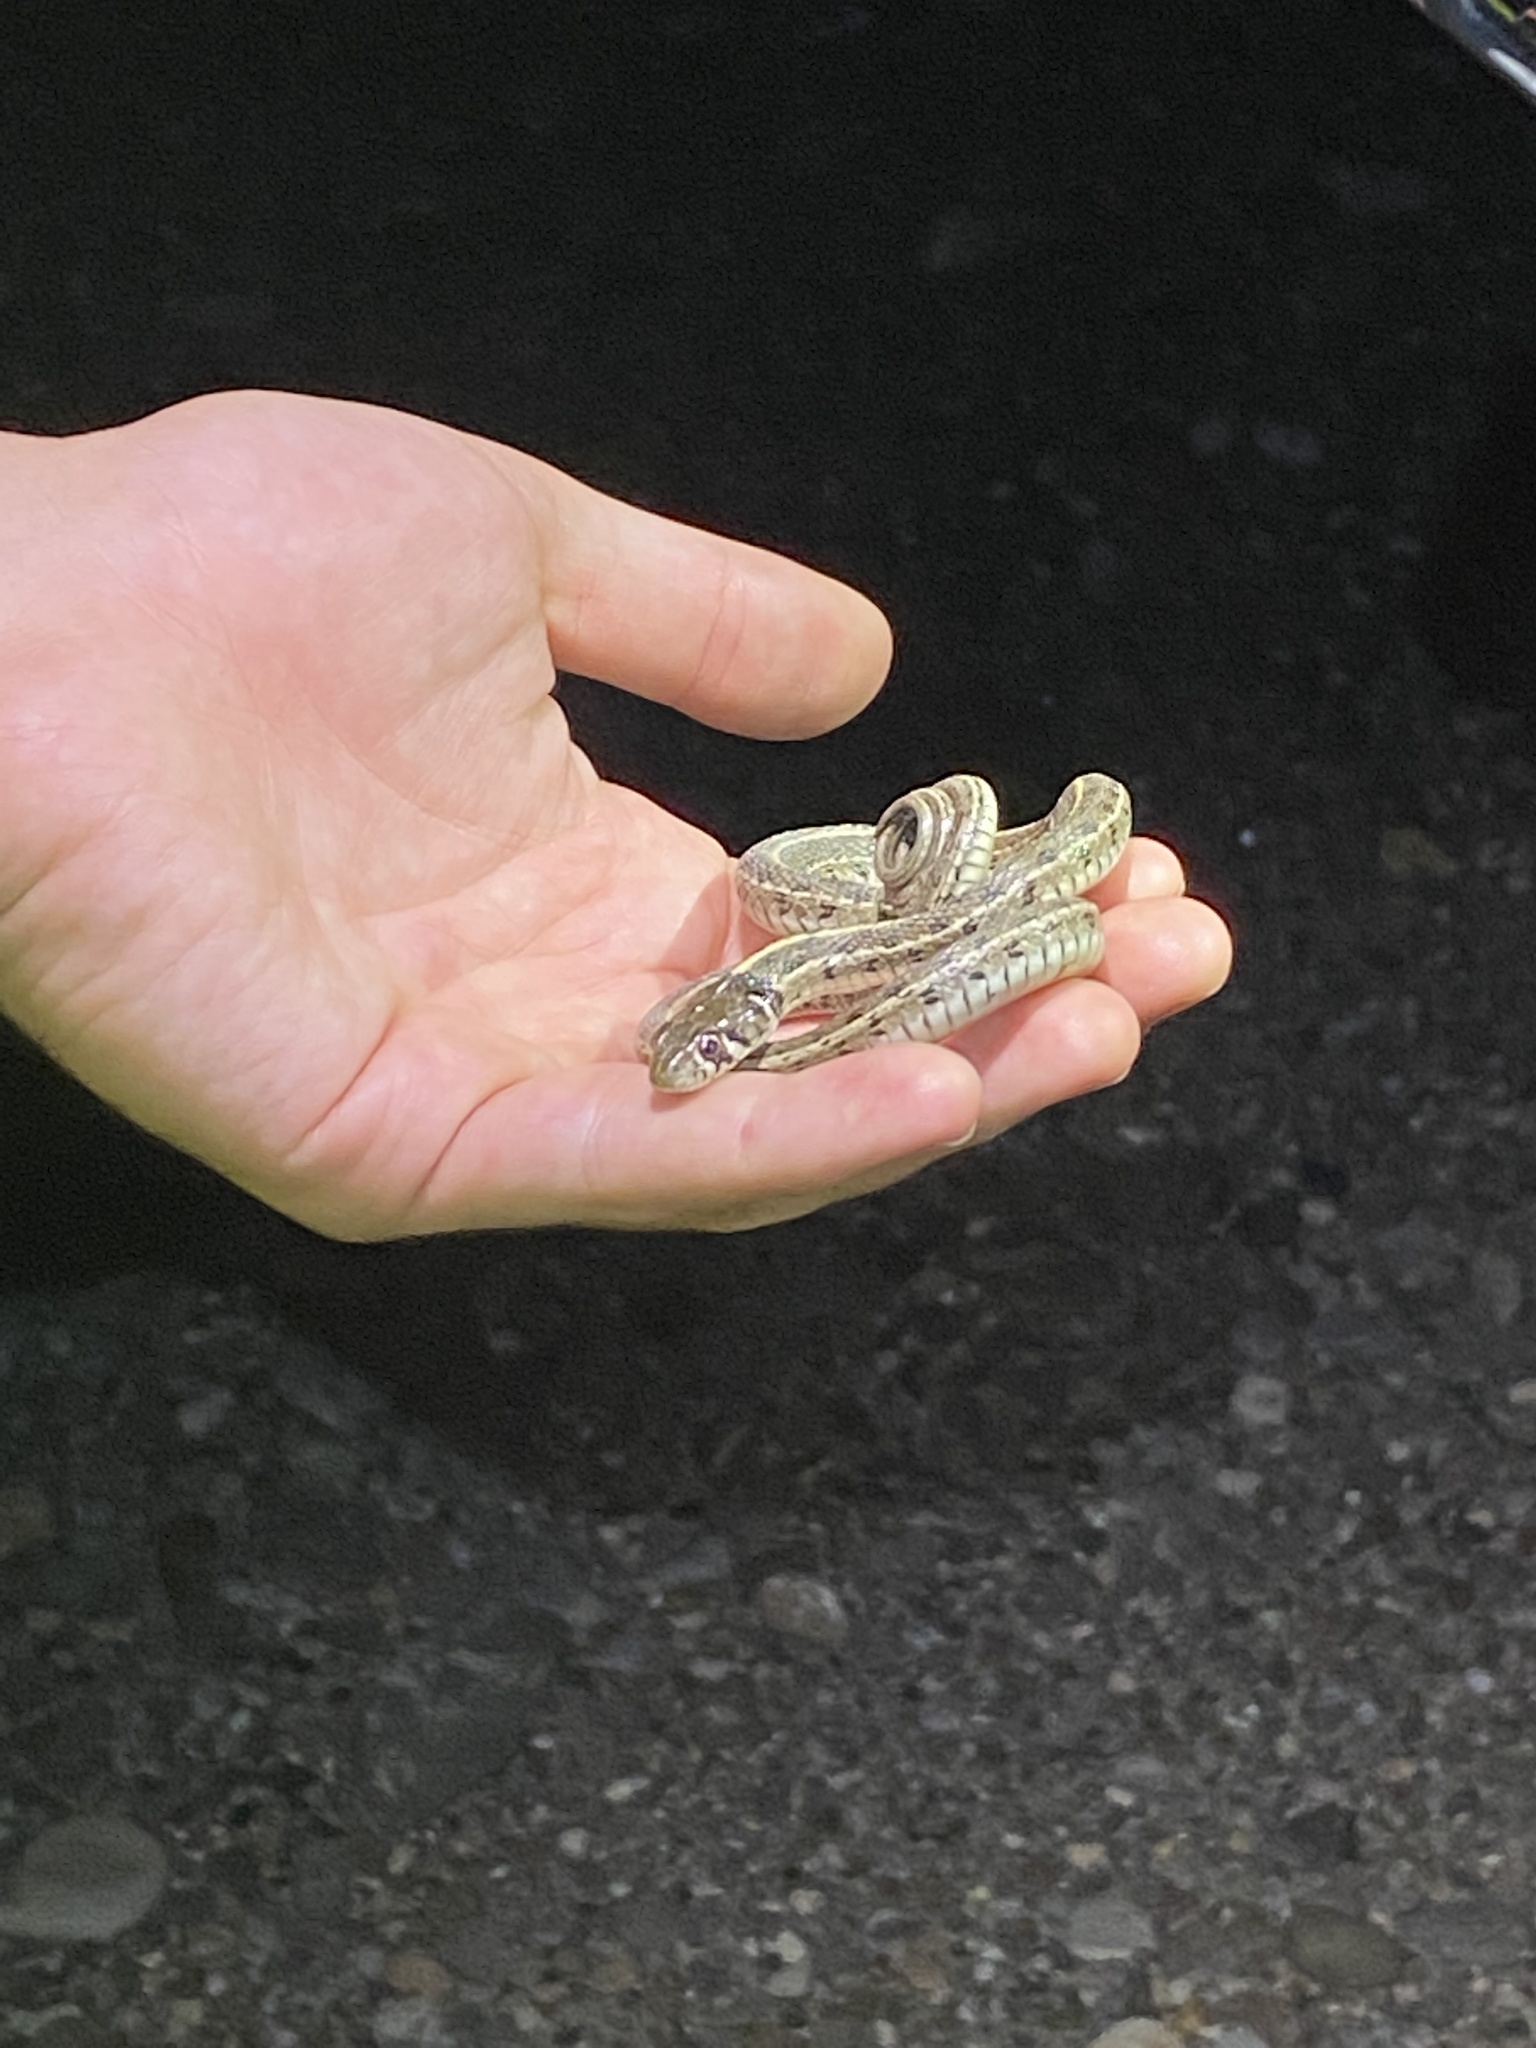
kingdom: Animalia
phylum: Chordata
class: Squamata
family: Colubridae
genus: Thamnophis
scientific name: Thamnophis marcianus
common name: Checkered garter snake
